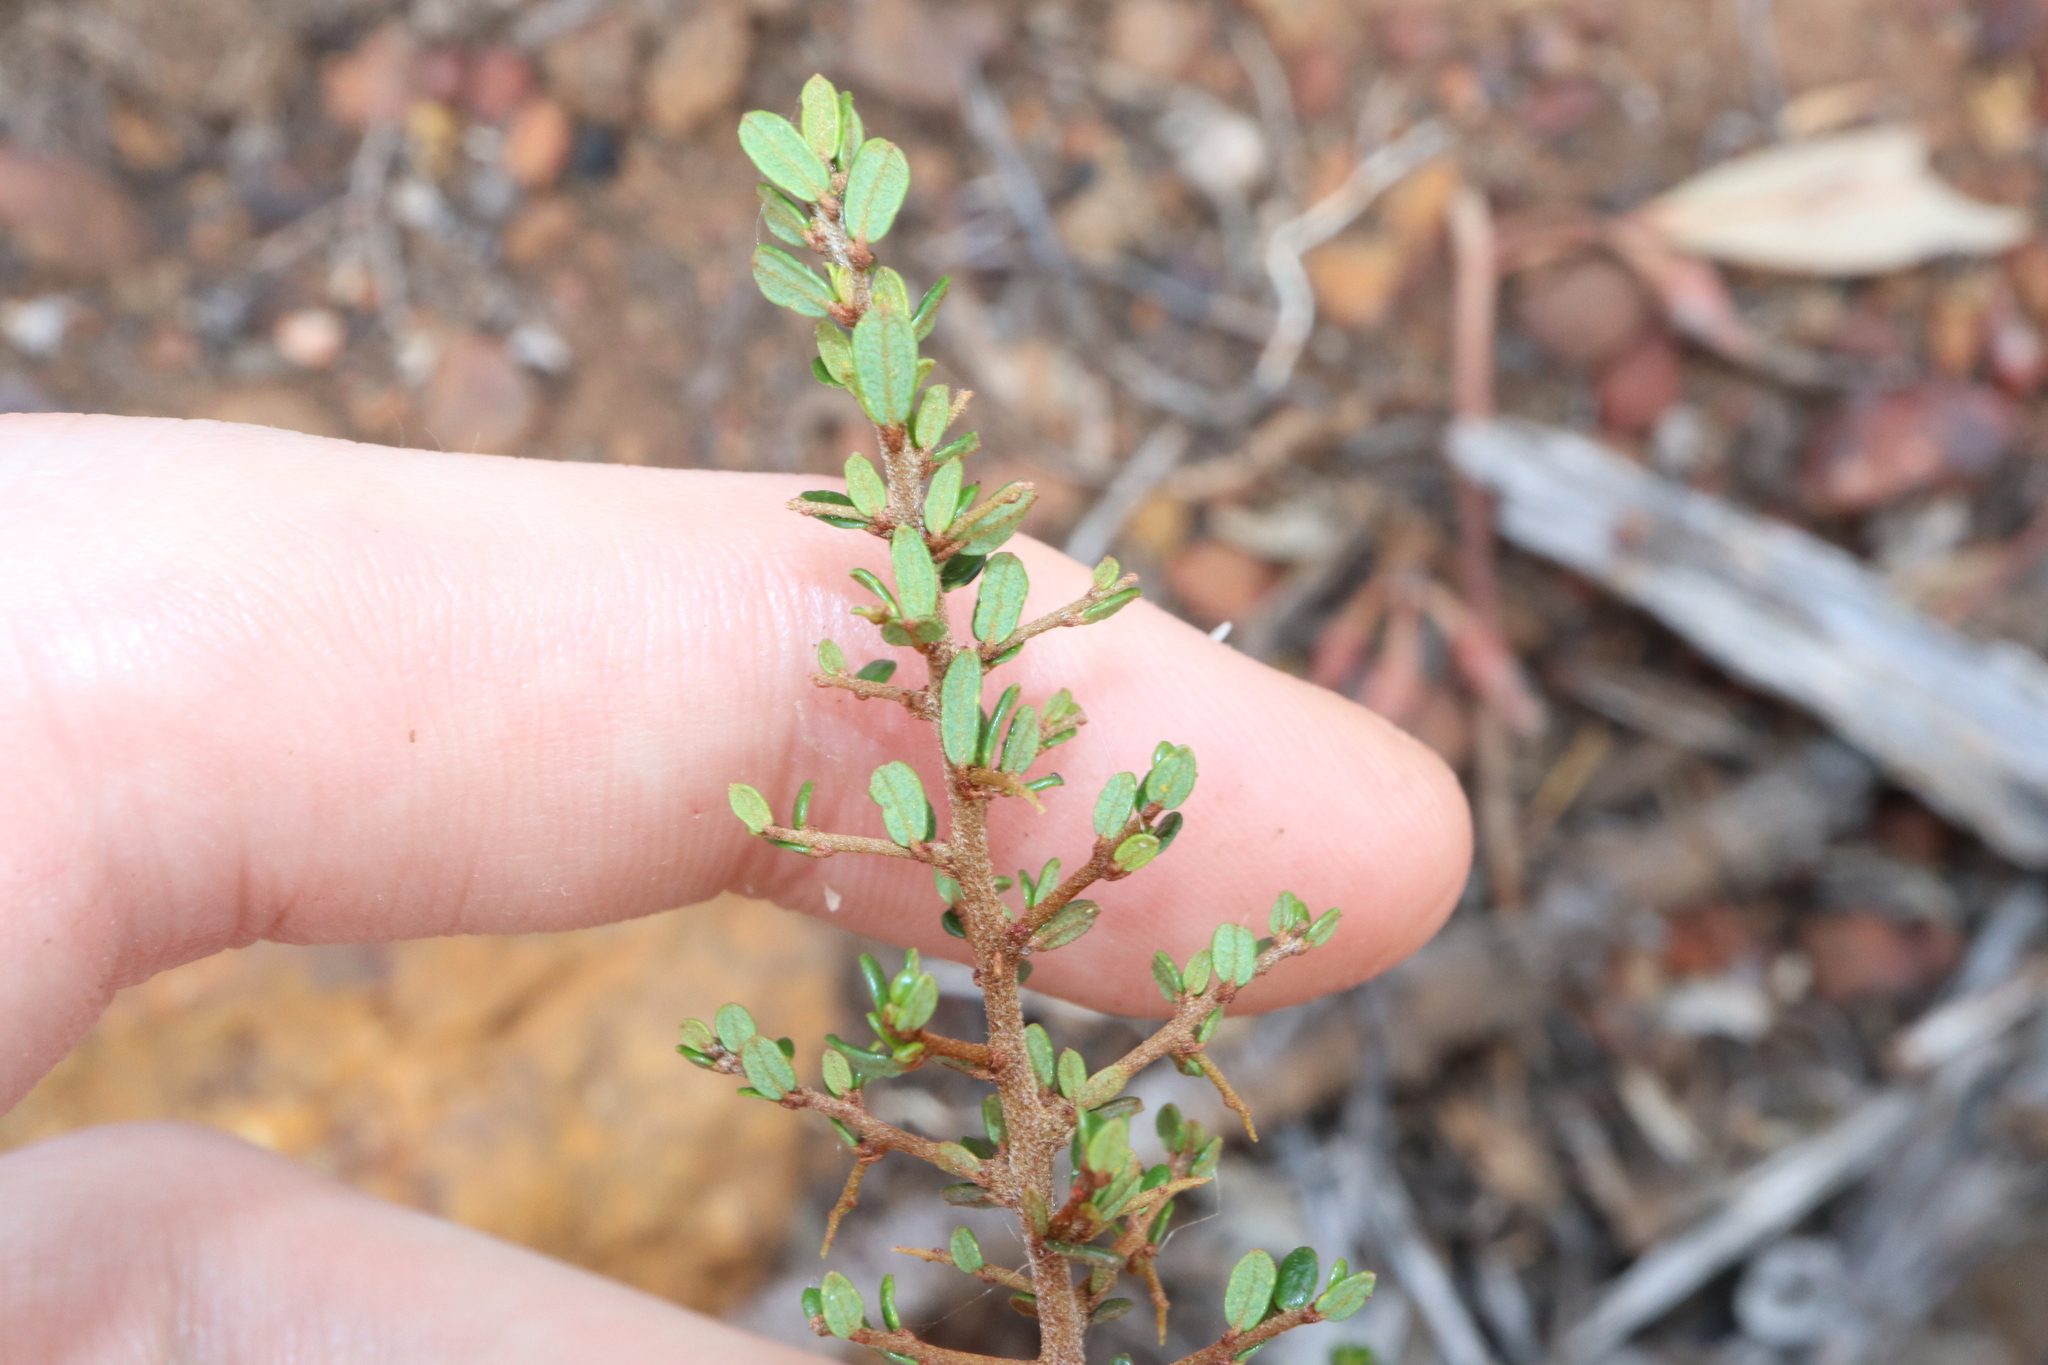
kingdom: Plantae
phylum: Tracheophyta
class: Magnoliopsida
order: Fabales
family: Fabaceae
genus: Hovea
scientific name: Hovea acanthoclada
